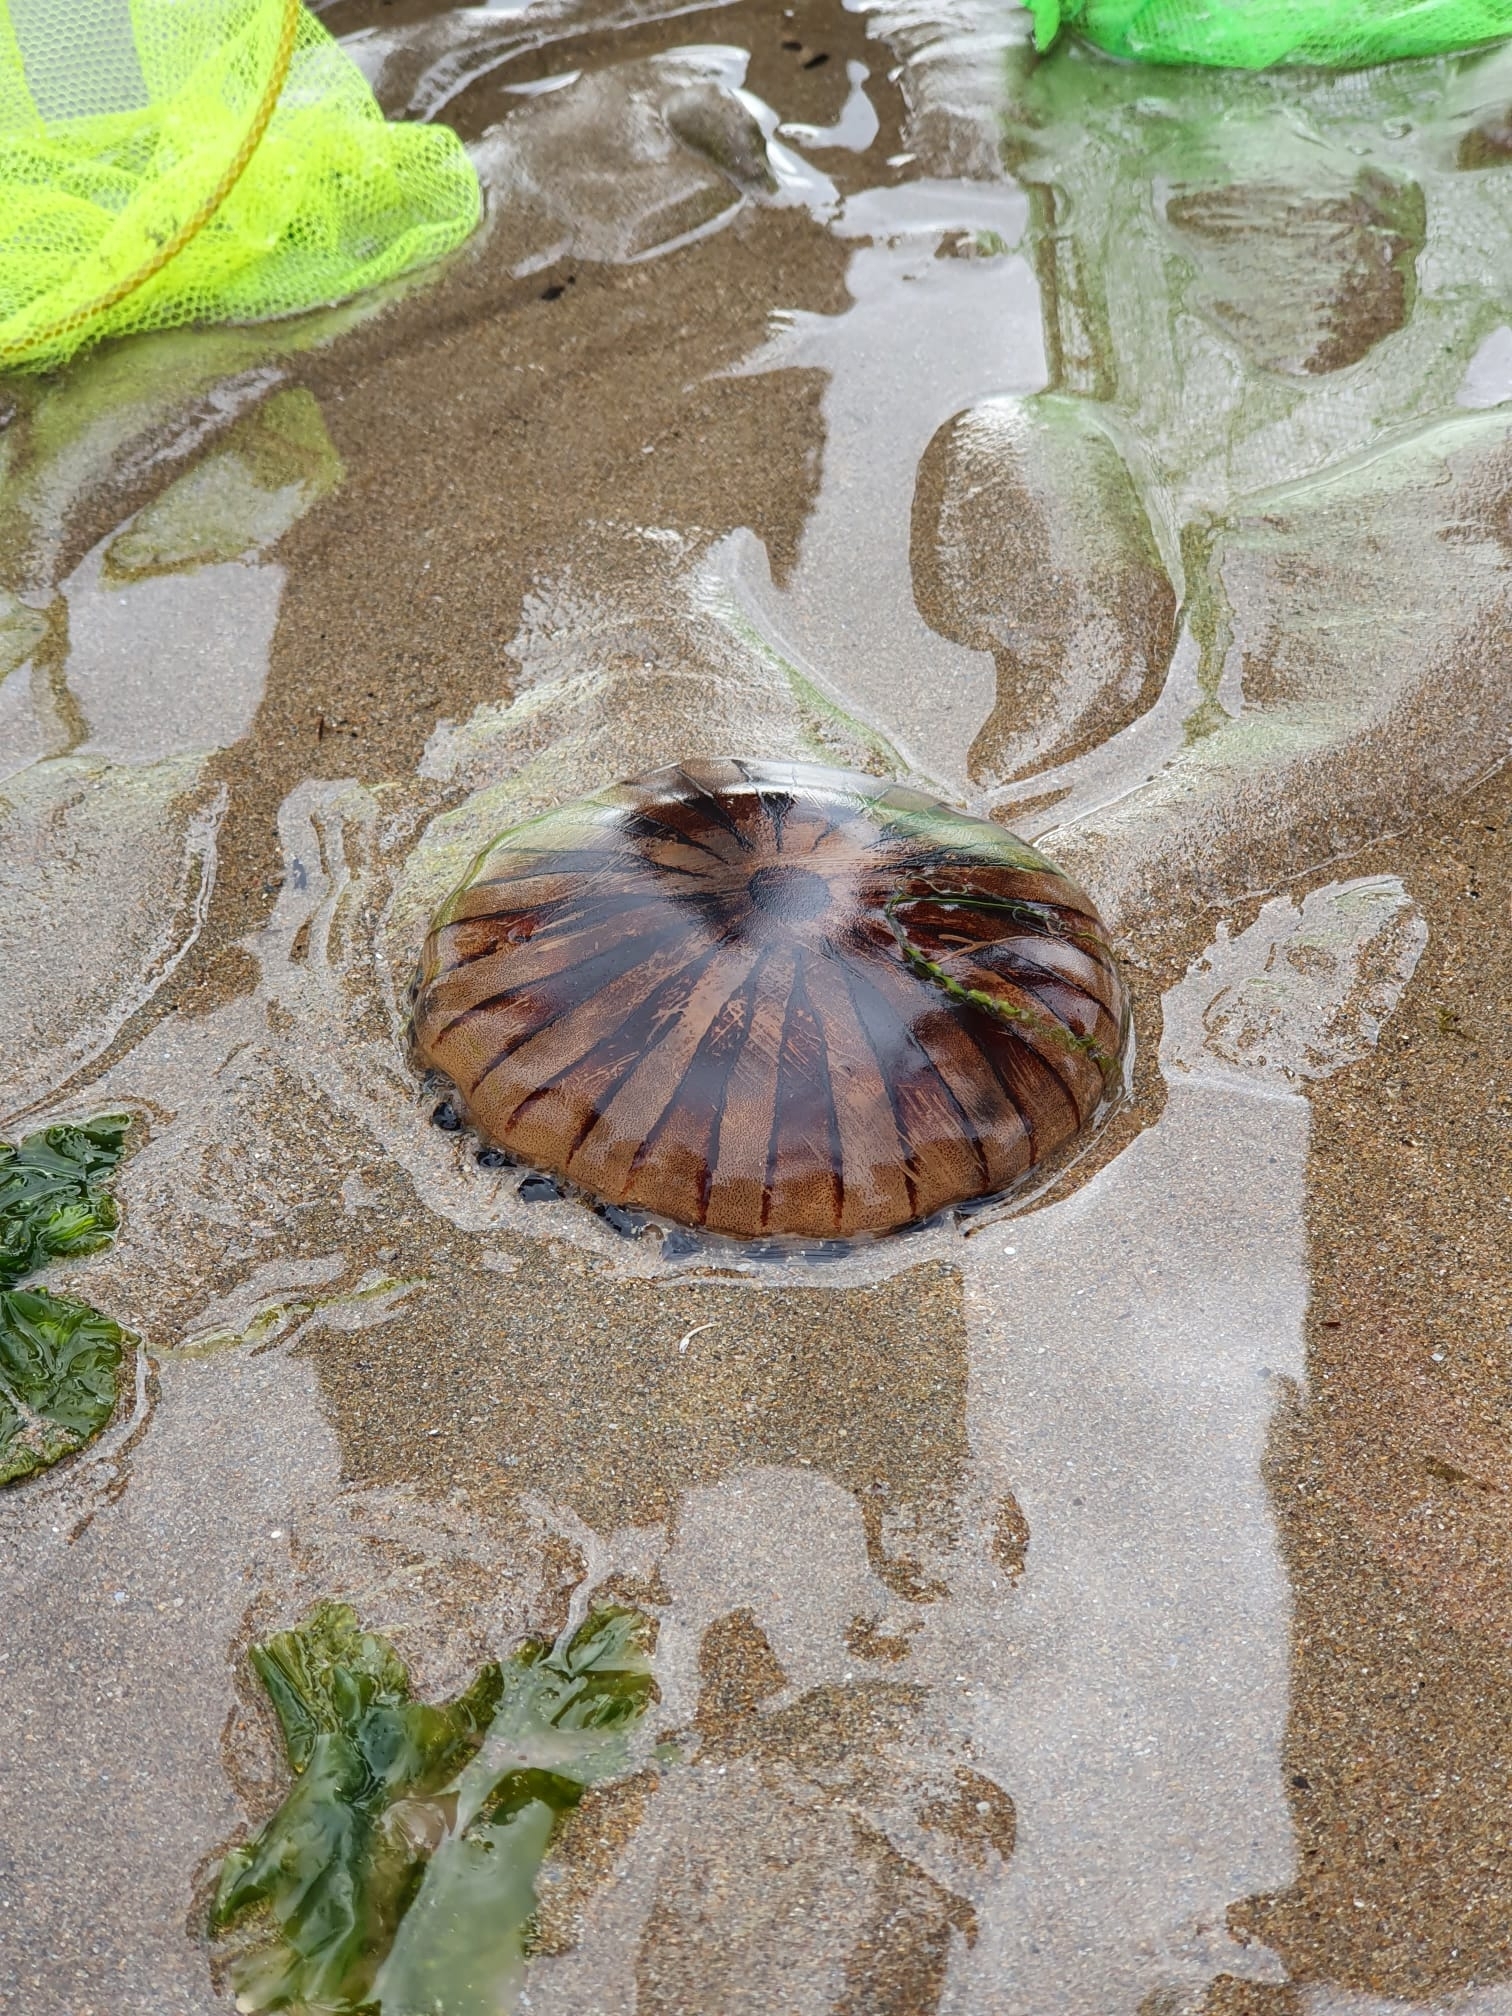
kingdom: Animalia
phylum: Cnidaria
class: Scyphozoa
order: Semaeostomeae
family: Pelagiidae
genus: Chrysaora
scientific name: Chrysaora hysoscella
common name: Compass jellyfish
